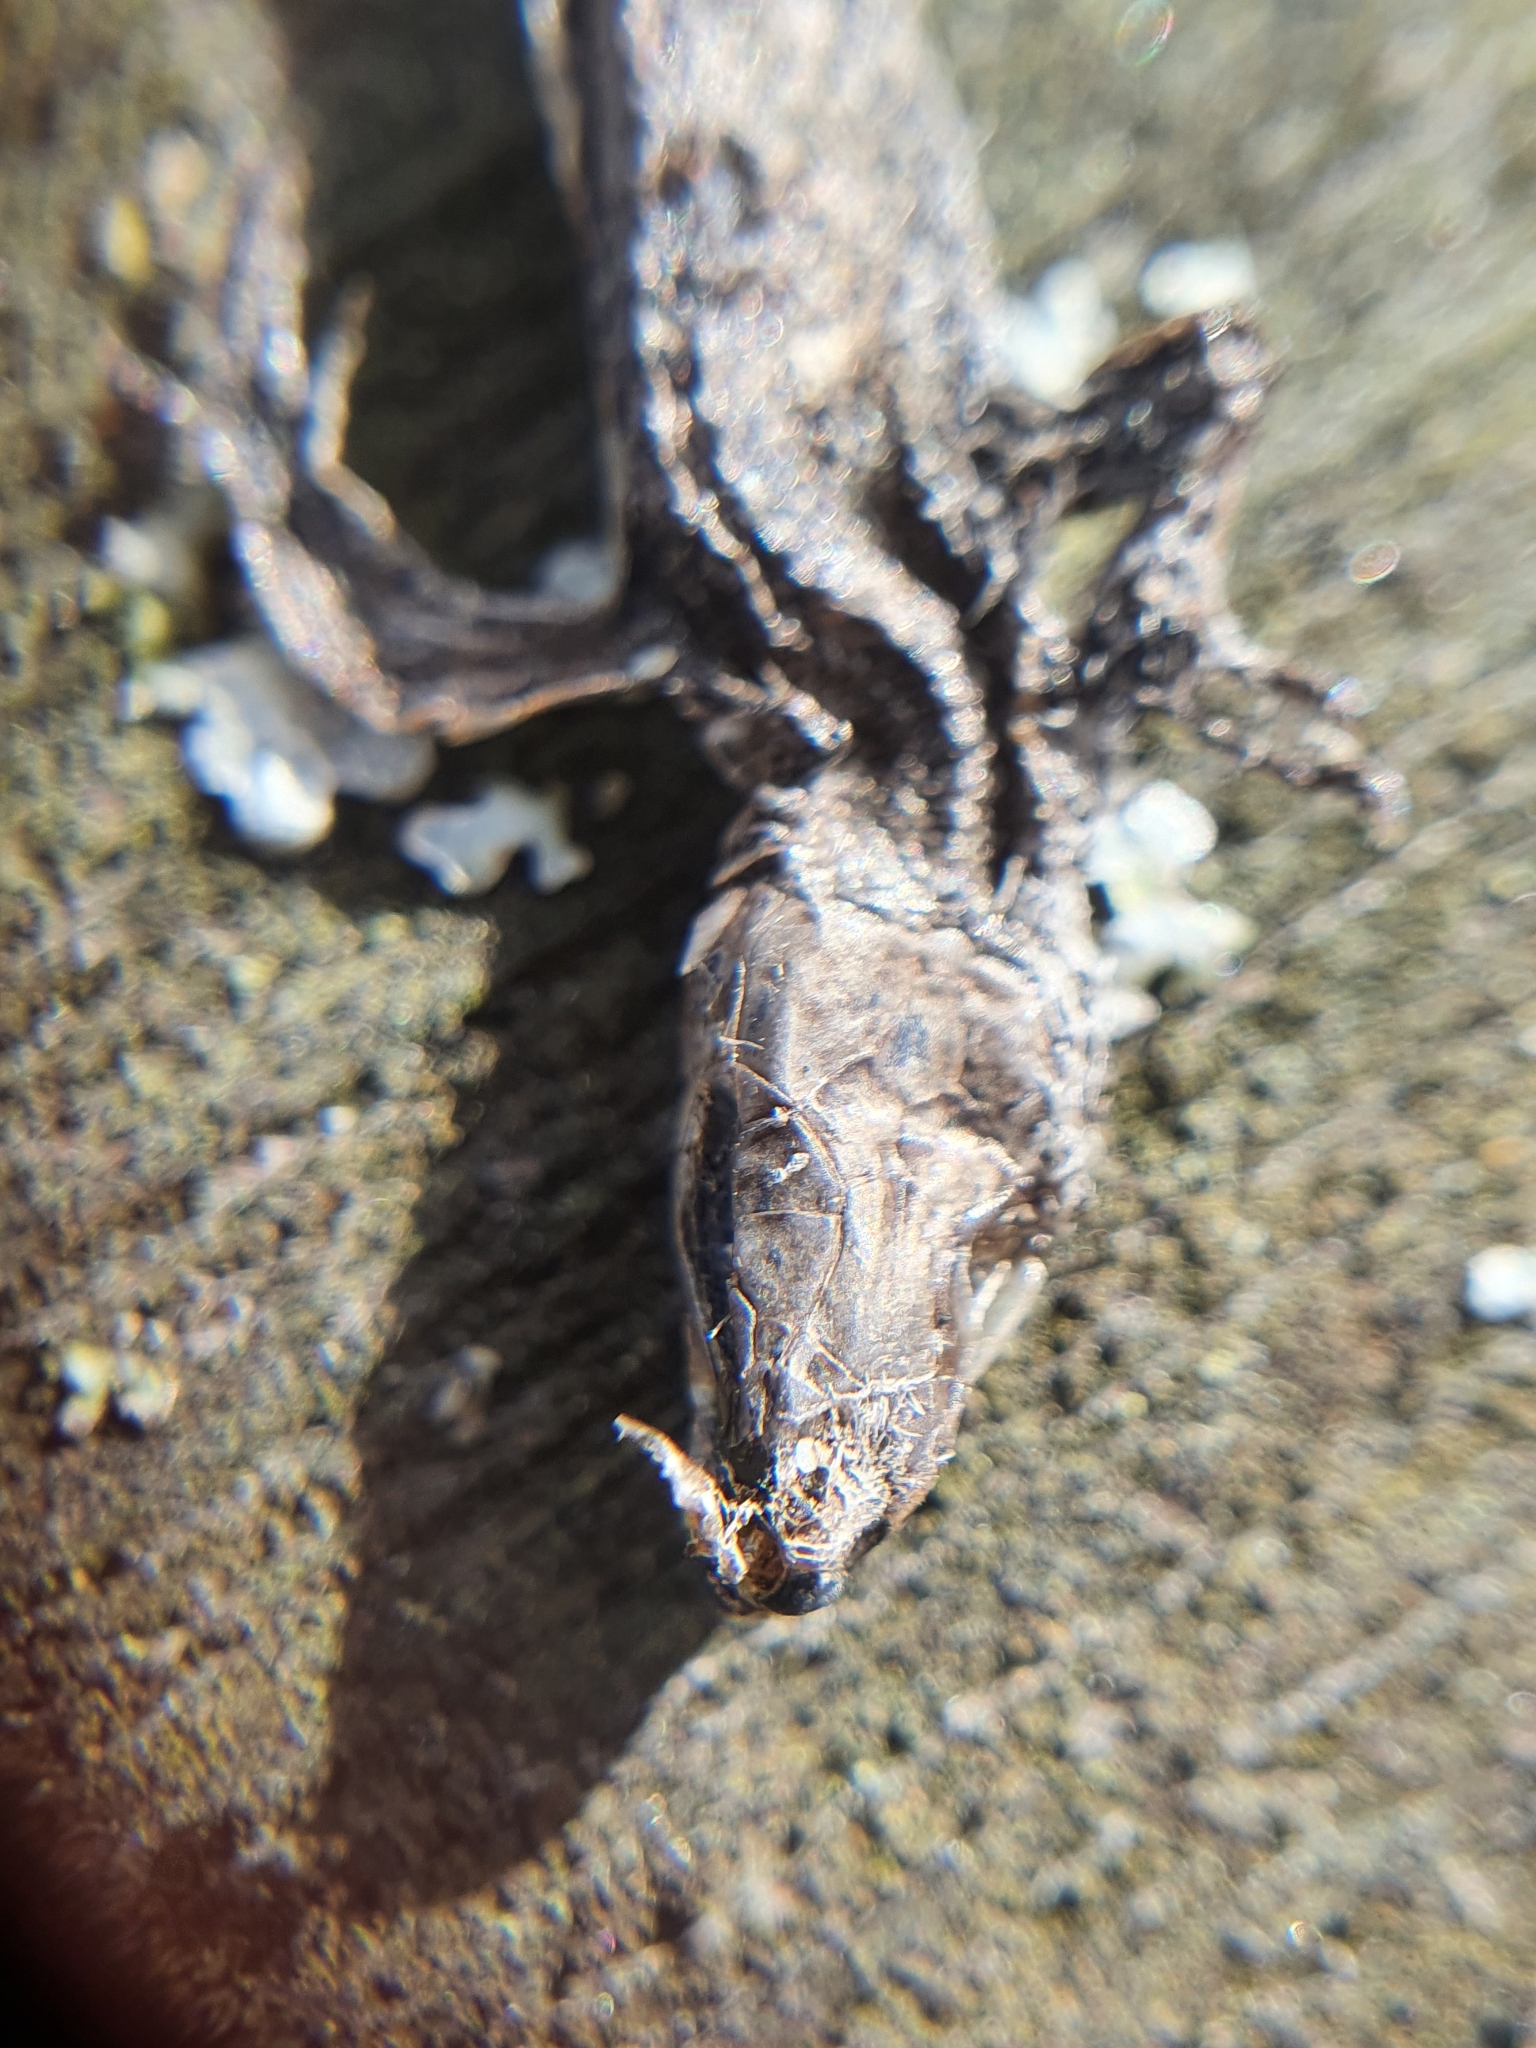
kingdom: Animalia
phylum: Chordata
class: Squamata
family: Lacertidae
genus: Zootoca
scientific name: Zootoca vivipara
